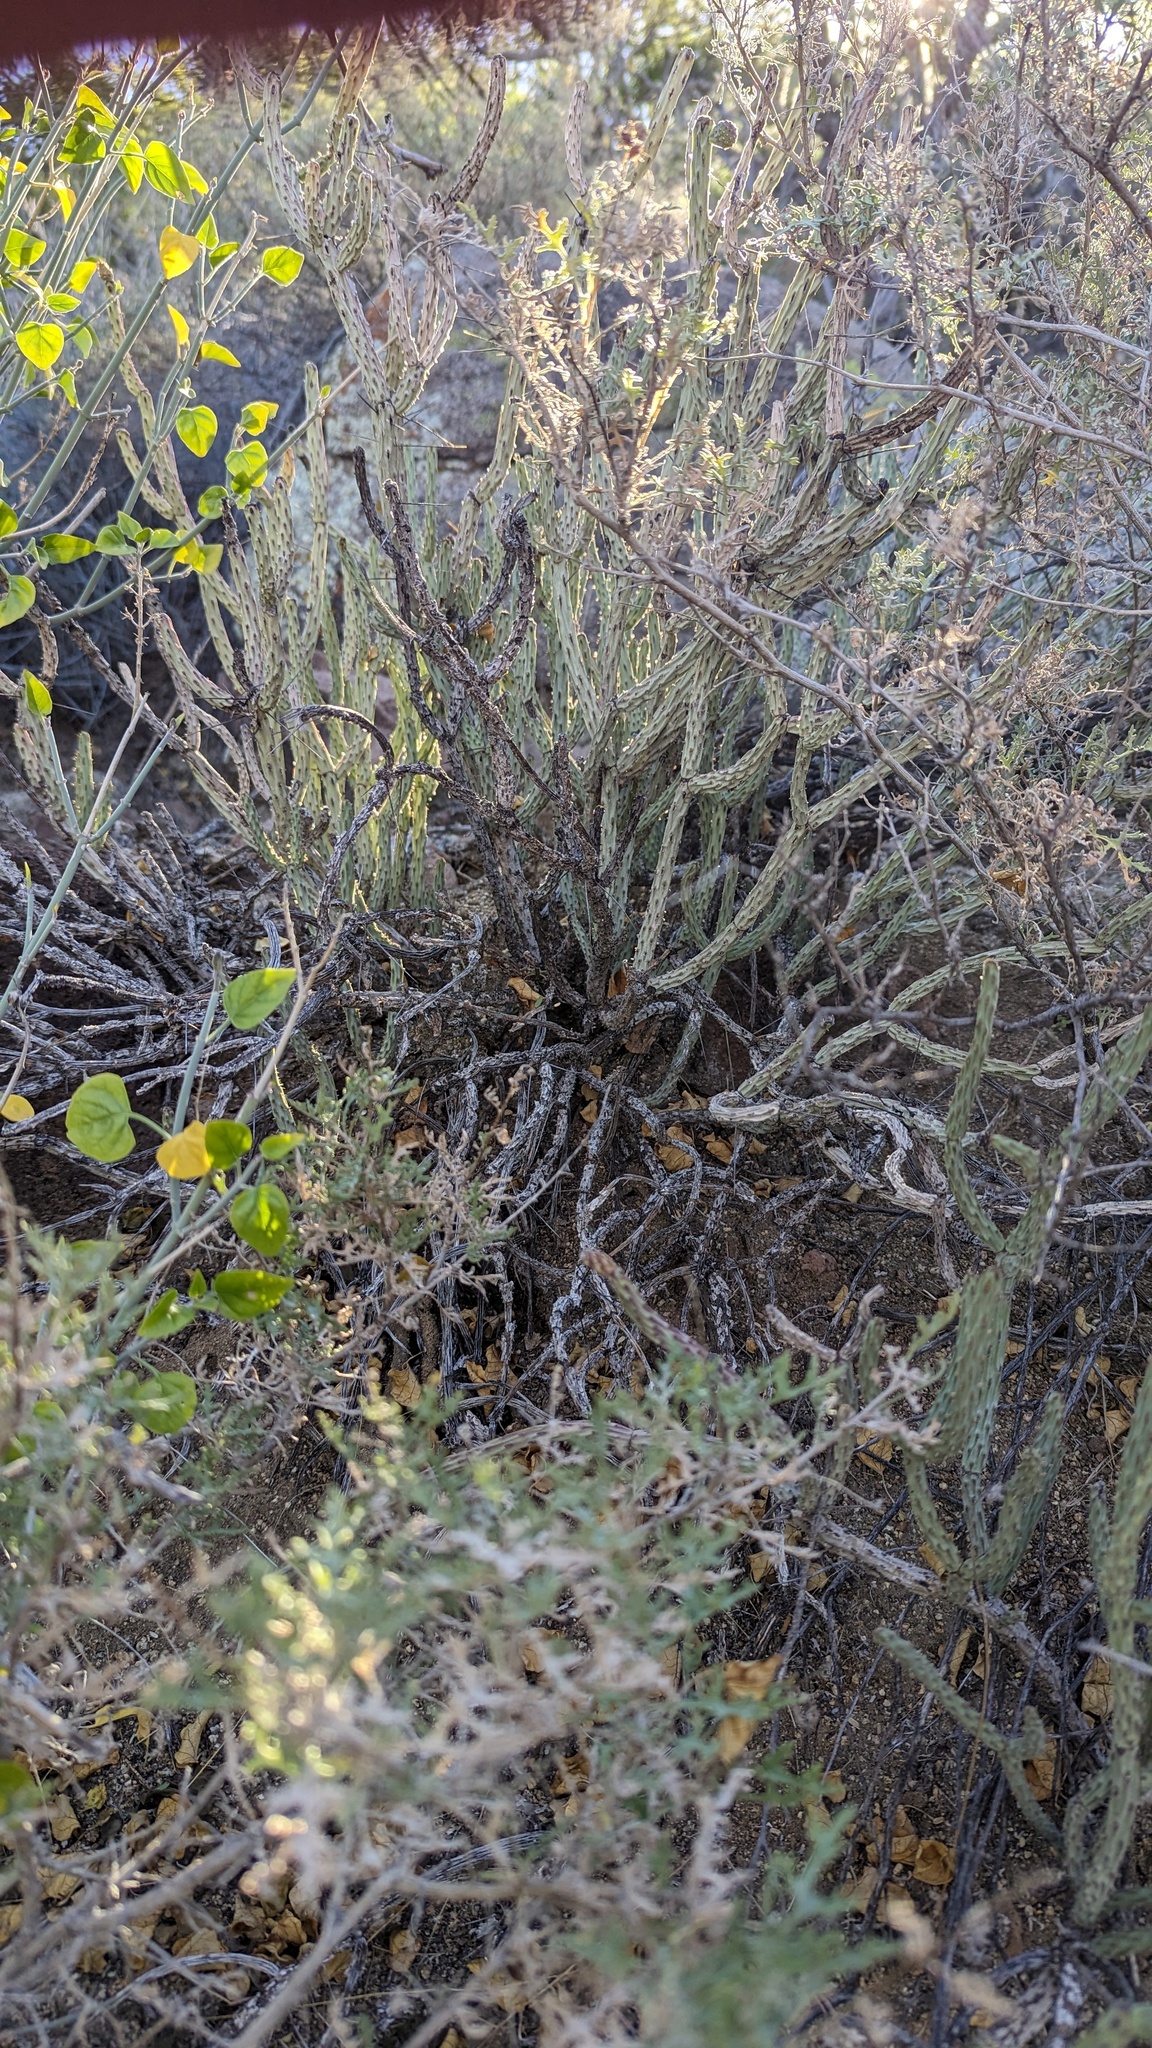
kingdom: Plantae
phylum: Tracheophyta
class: Magnoliopsida
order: Caryophyllales
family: Cactaceae
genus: Cylindropuntia
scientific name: Cylindropuntia tesajo
